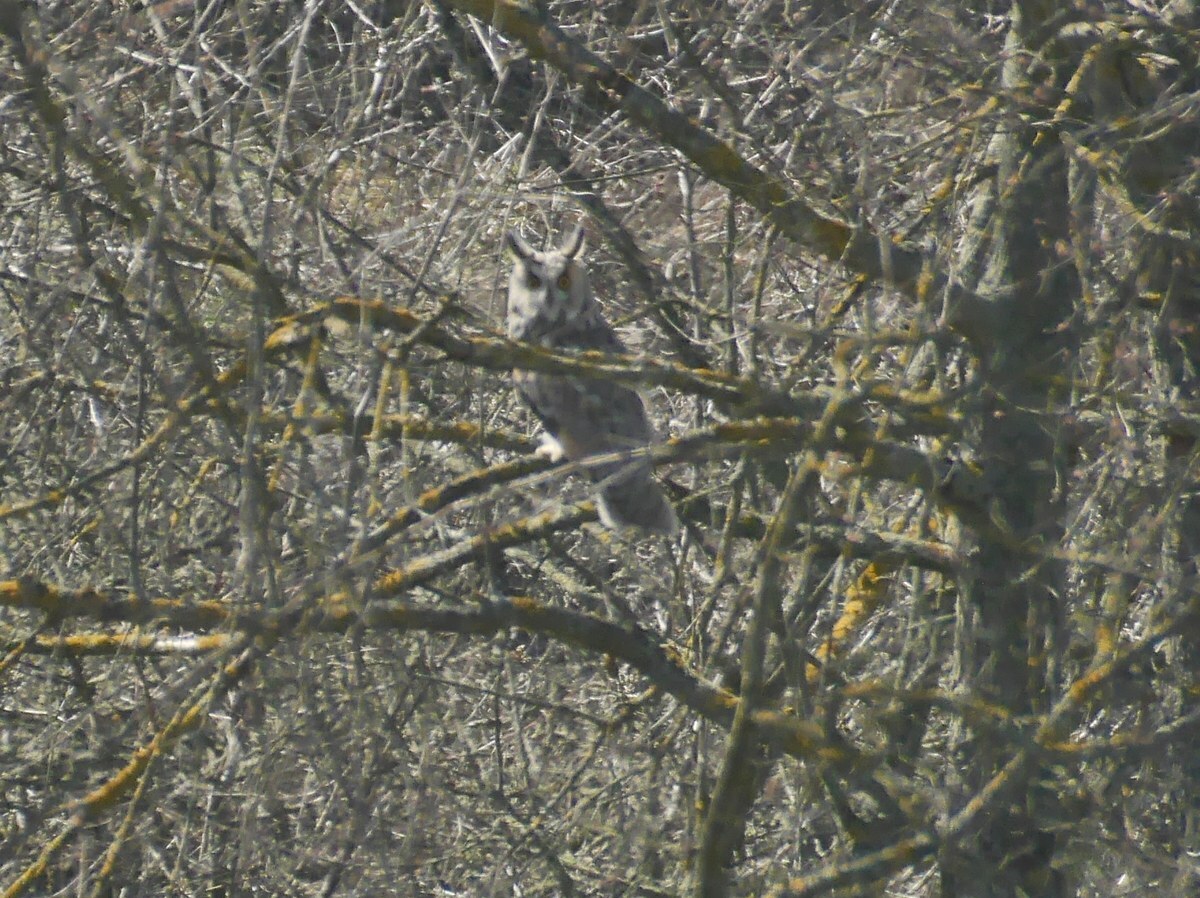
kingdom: Animalia
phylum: Chordata
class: Aves
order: Strigiformes
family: Strigidae
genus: Asio
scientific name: Asio otus
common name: Long-eared owl
